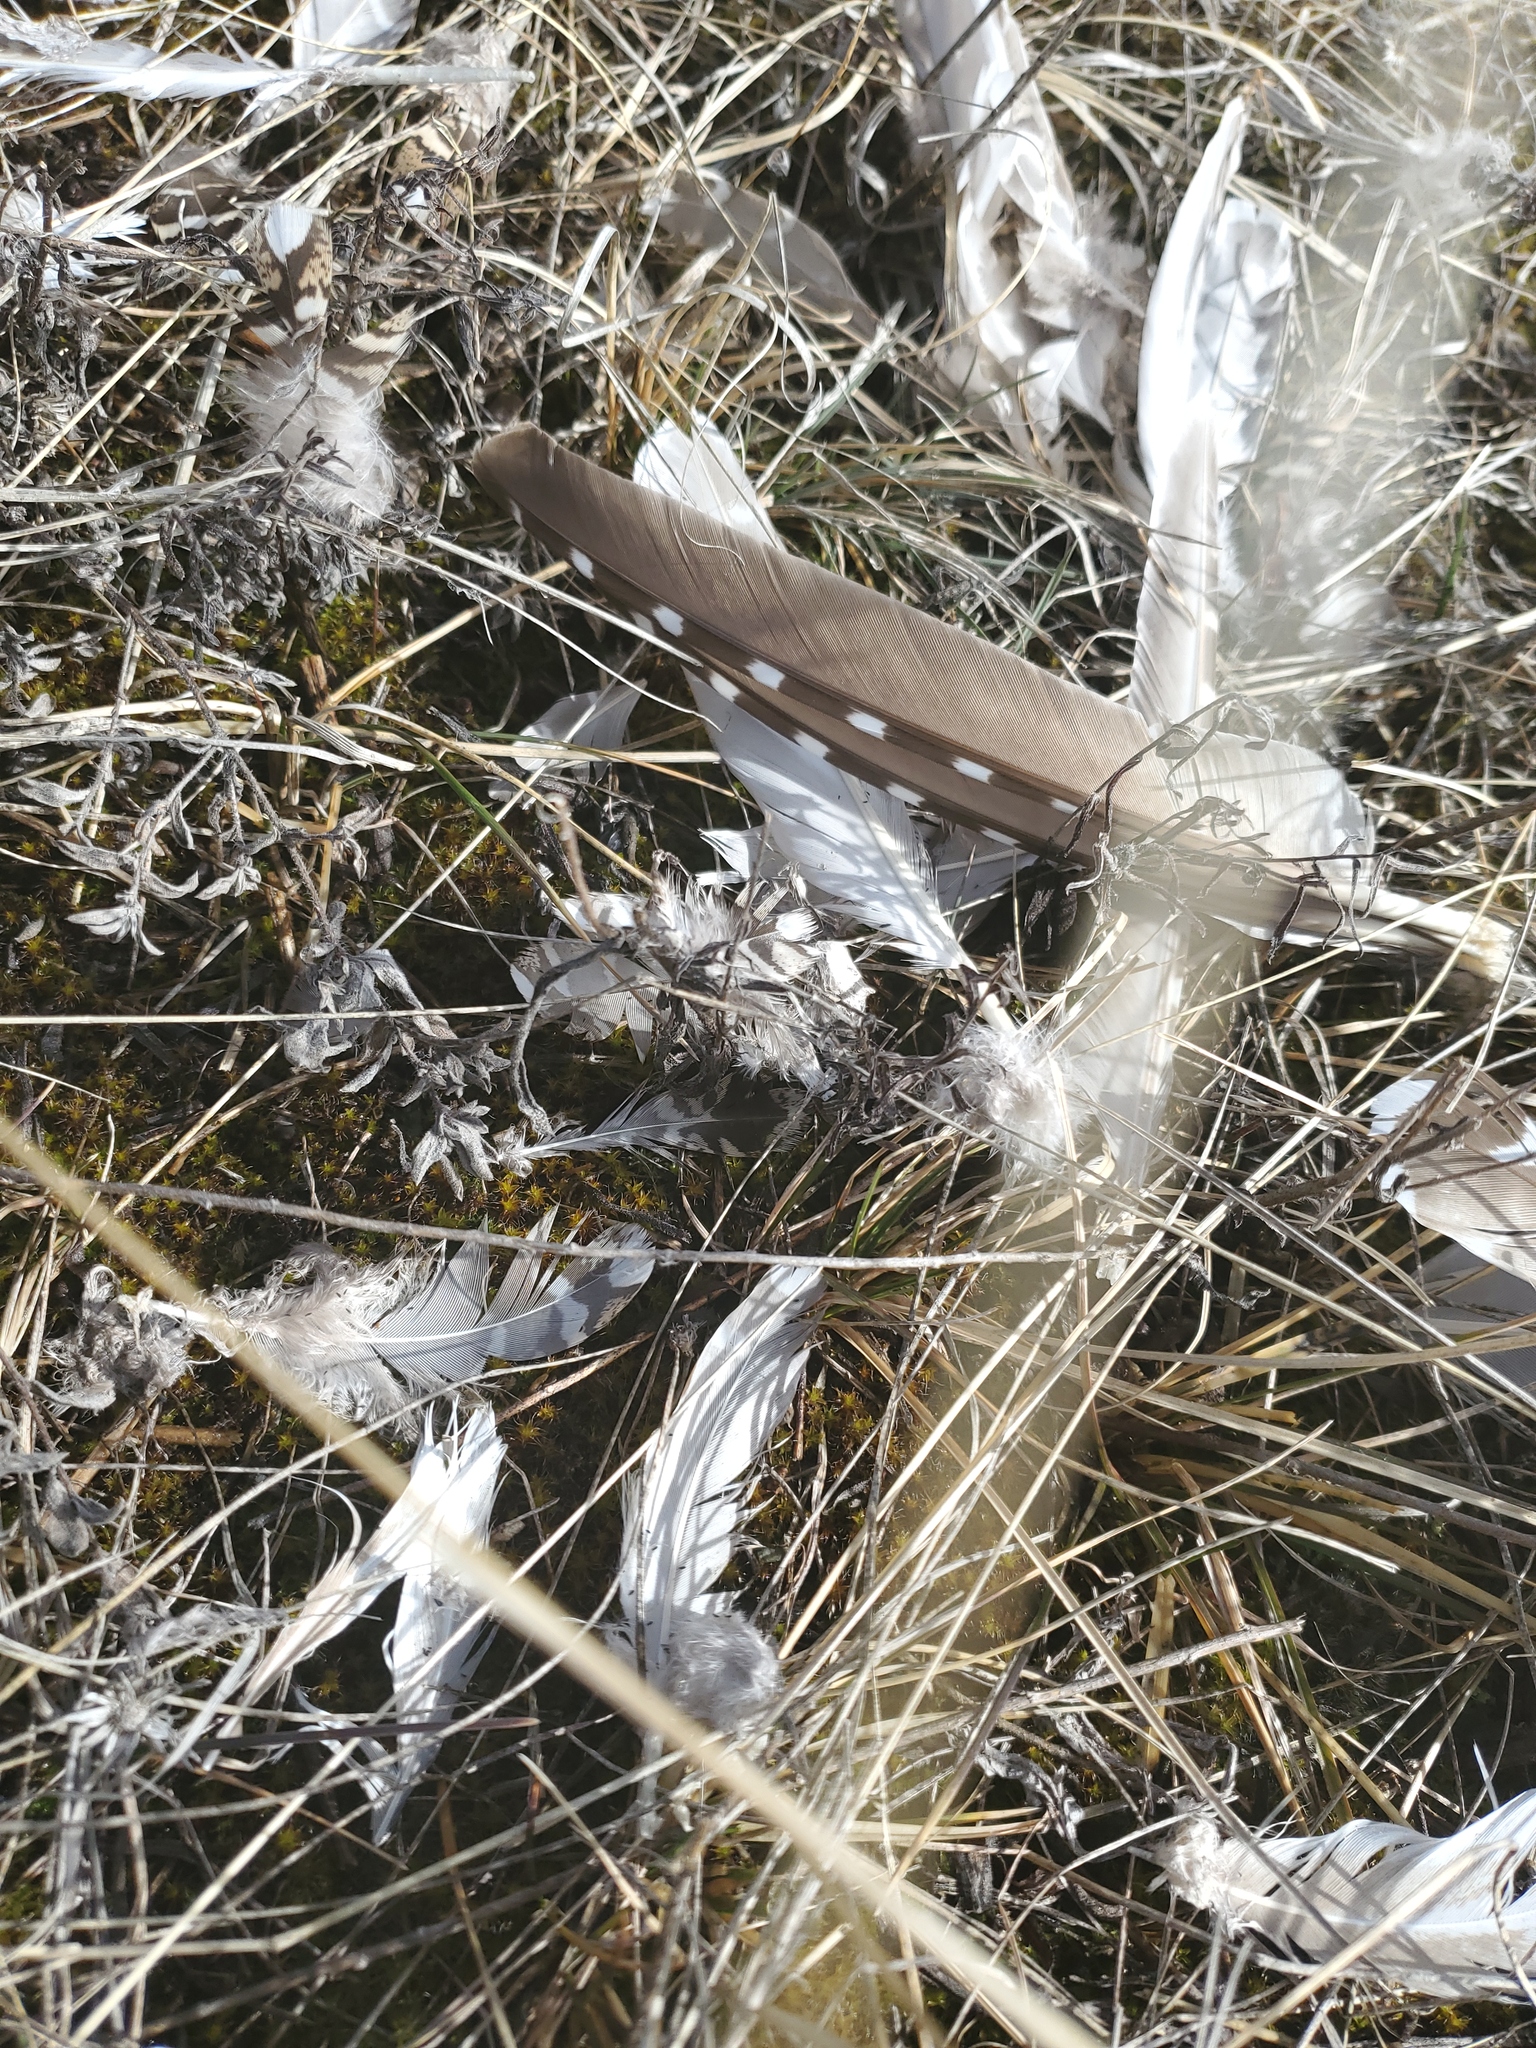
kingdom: Animalia
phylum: Chordata
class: Aves
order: Galliformes
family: Phasianidae
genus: Tympanuchus
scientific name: Tympanuchus phasianellus
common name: Sharp-tailed grouse
